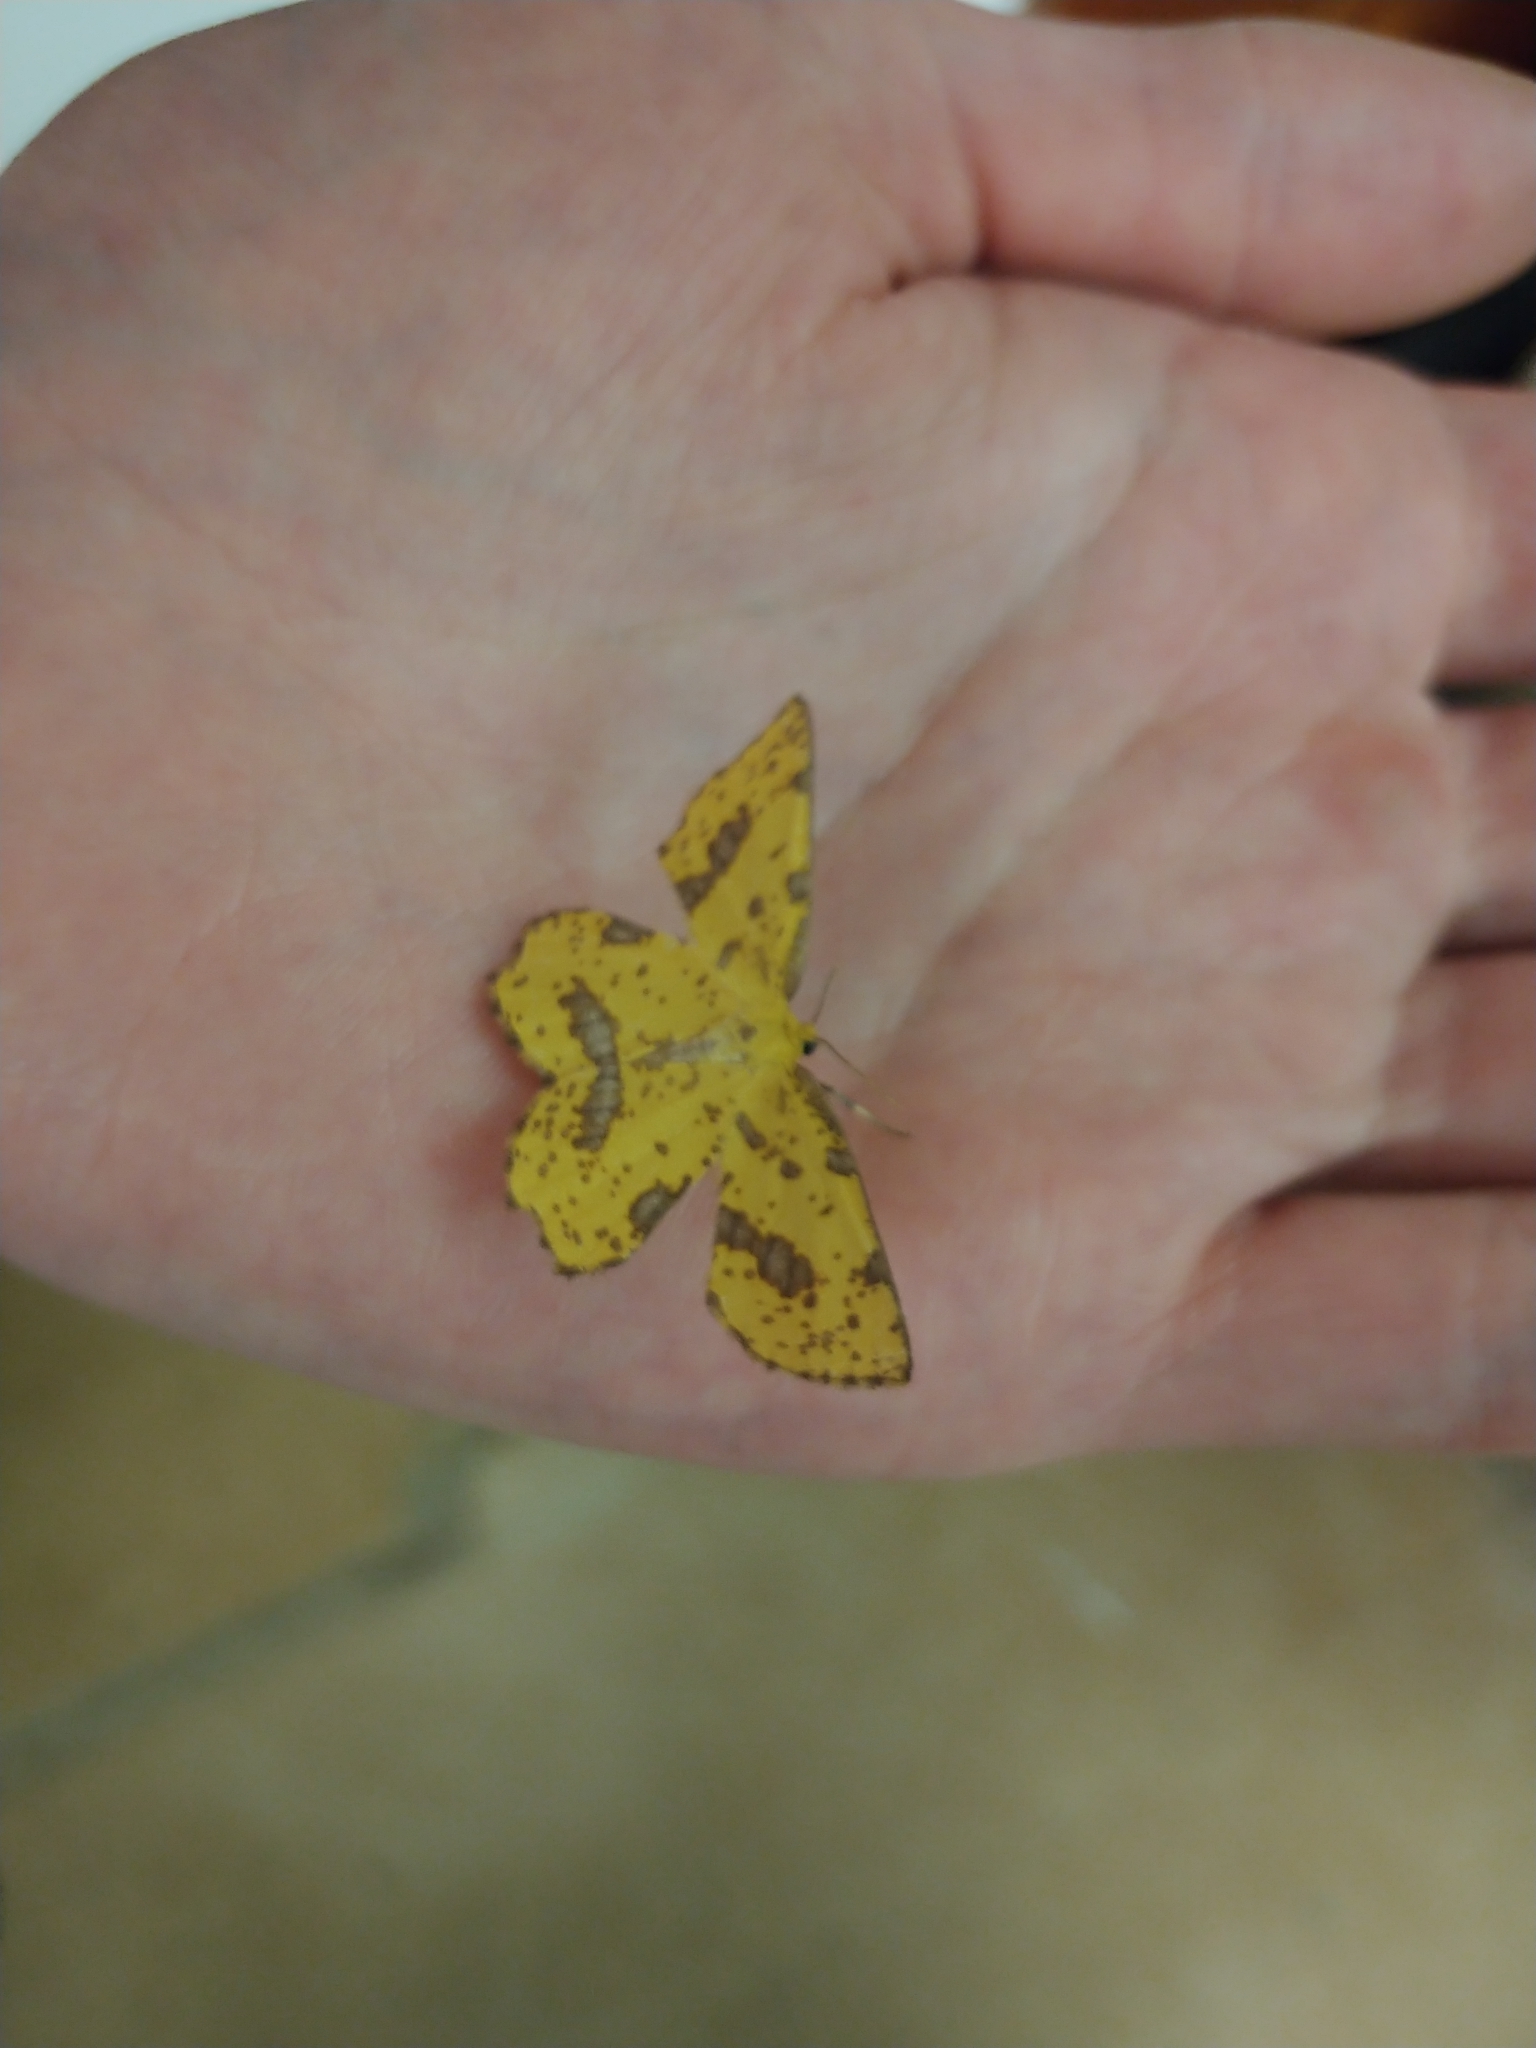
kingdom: Animalia
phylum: Arthropoda
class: Insecta
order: Lepidoptera
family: Geometridae
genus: Xanthotype
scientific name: Xanthotype
